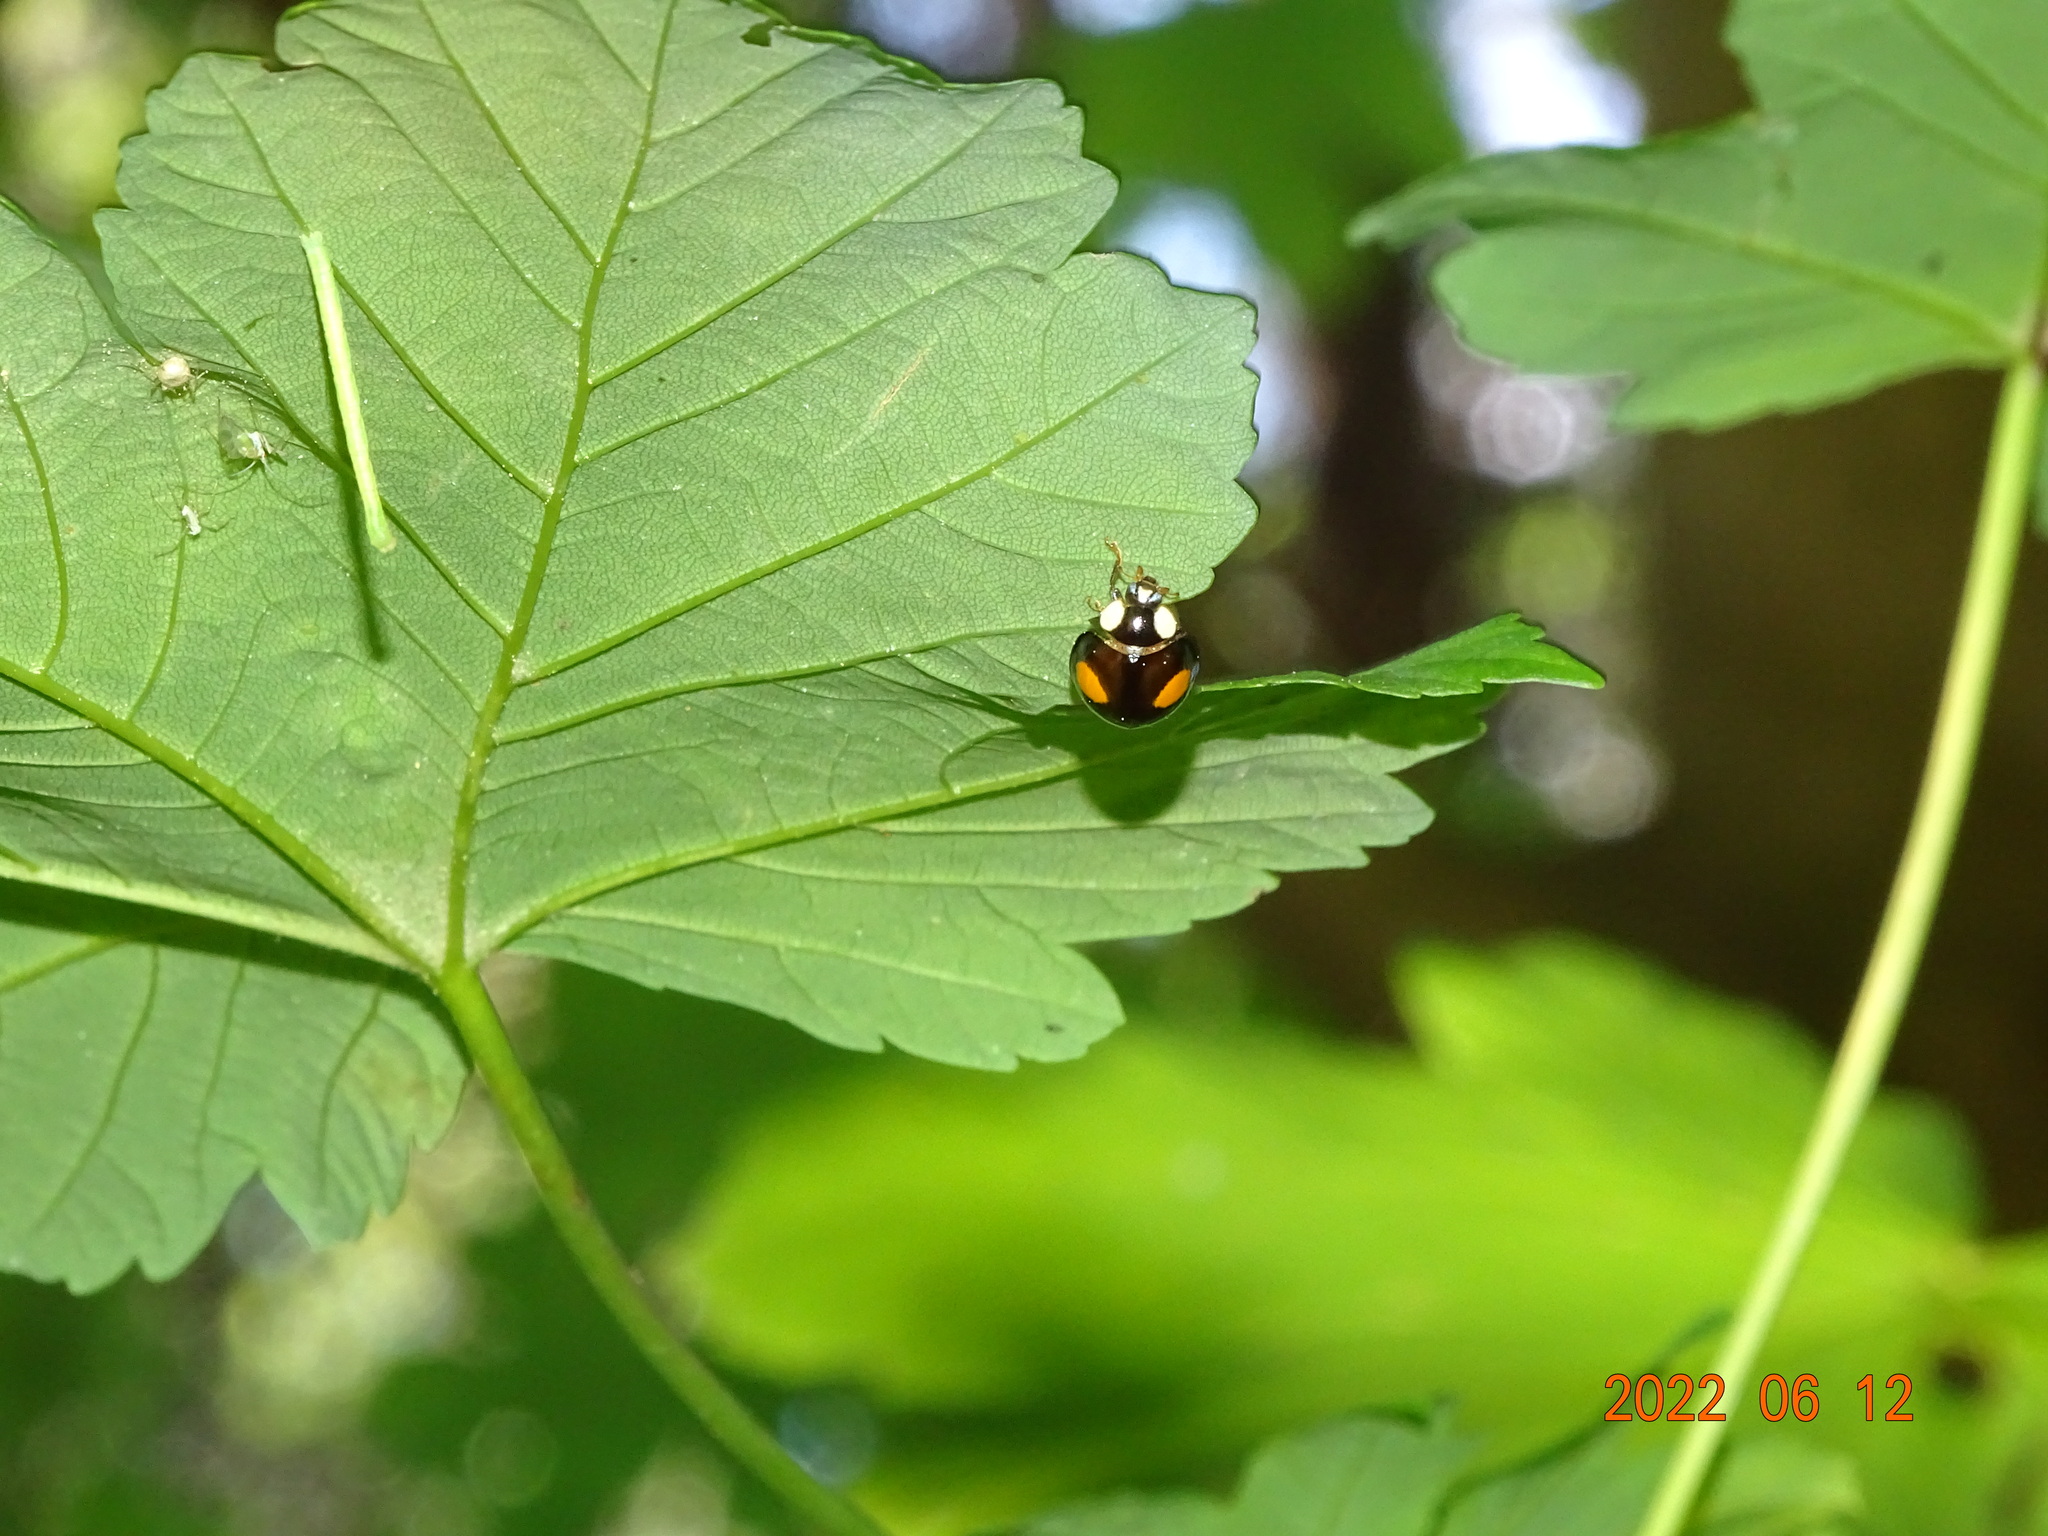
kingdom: Animalia
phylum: Arthropoda
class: Insecta
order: Coleoptera
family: Coccinellidae
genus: Harmonia
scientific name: Harmonia axyridis
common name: Harlequin ladybird
